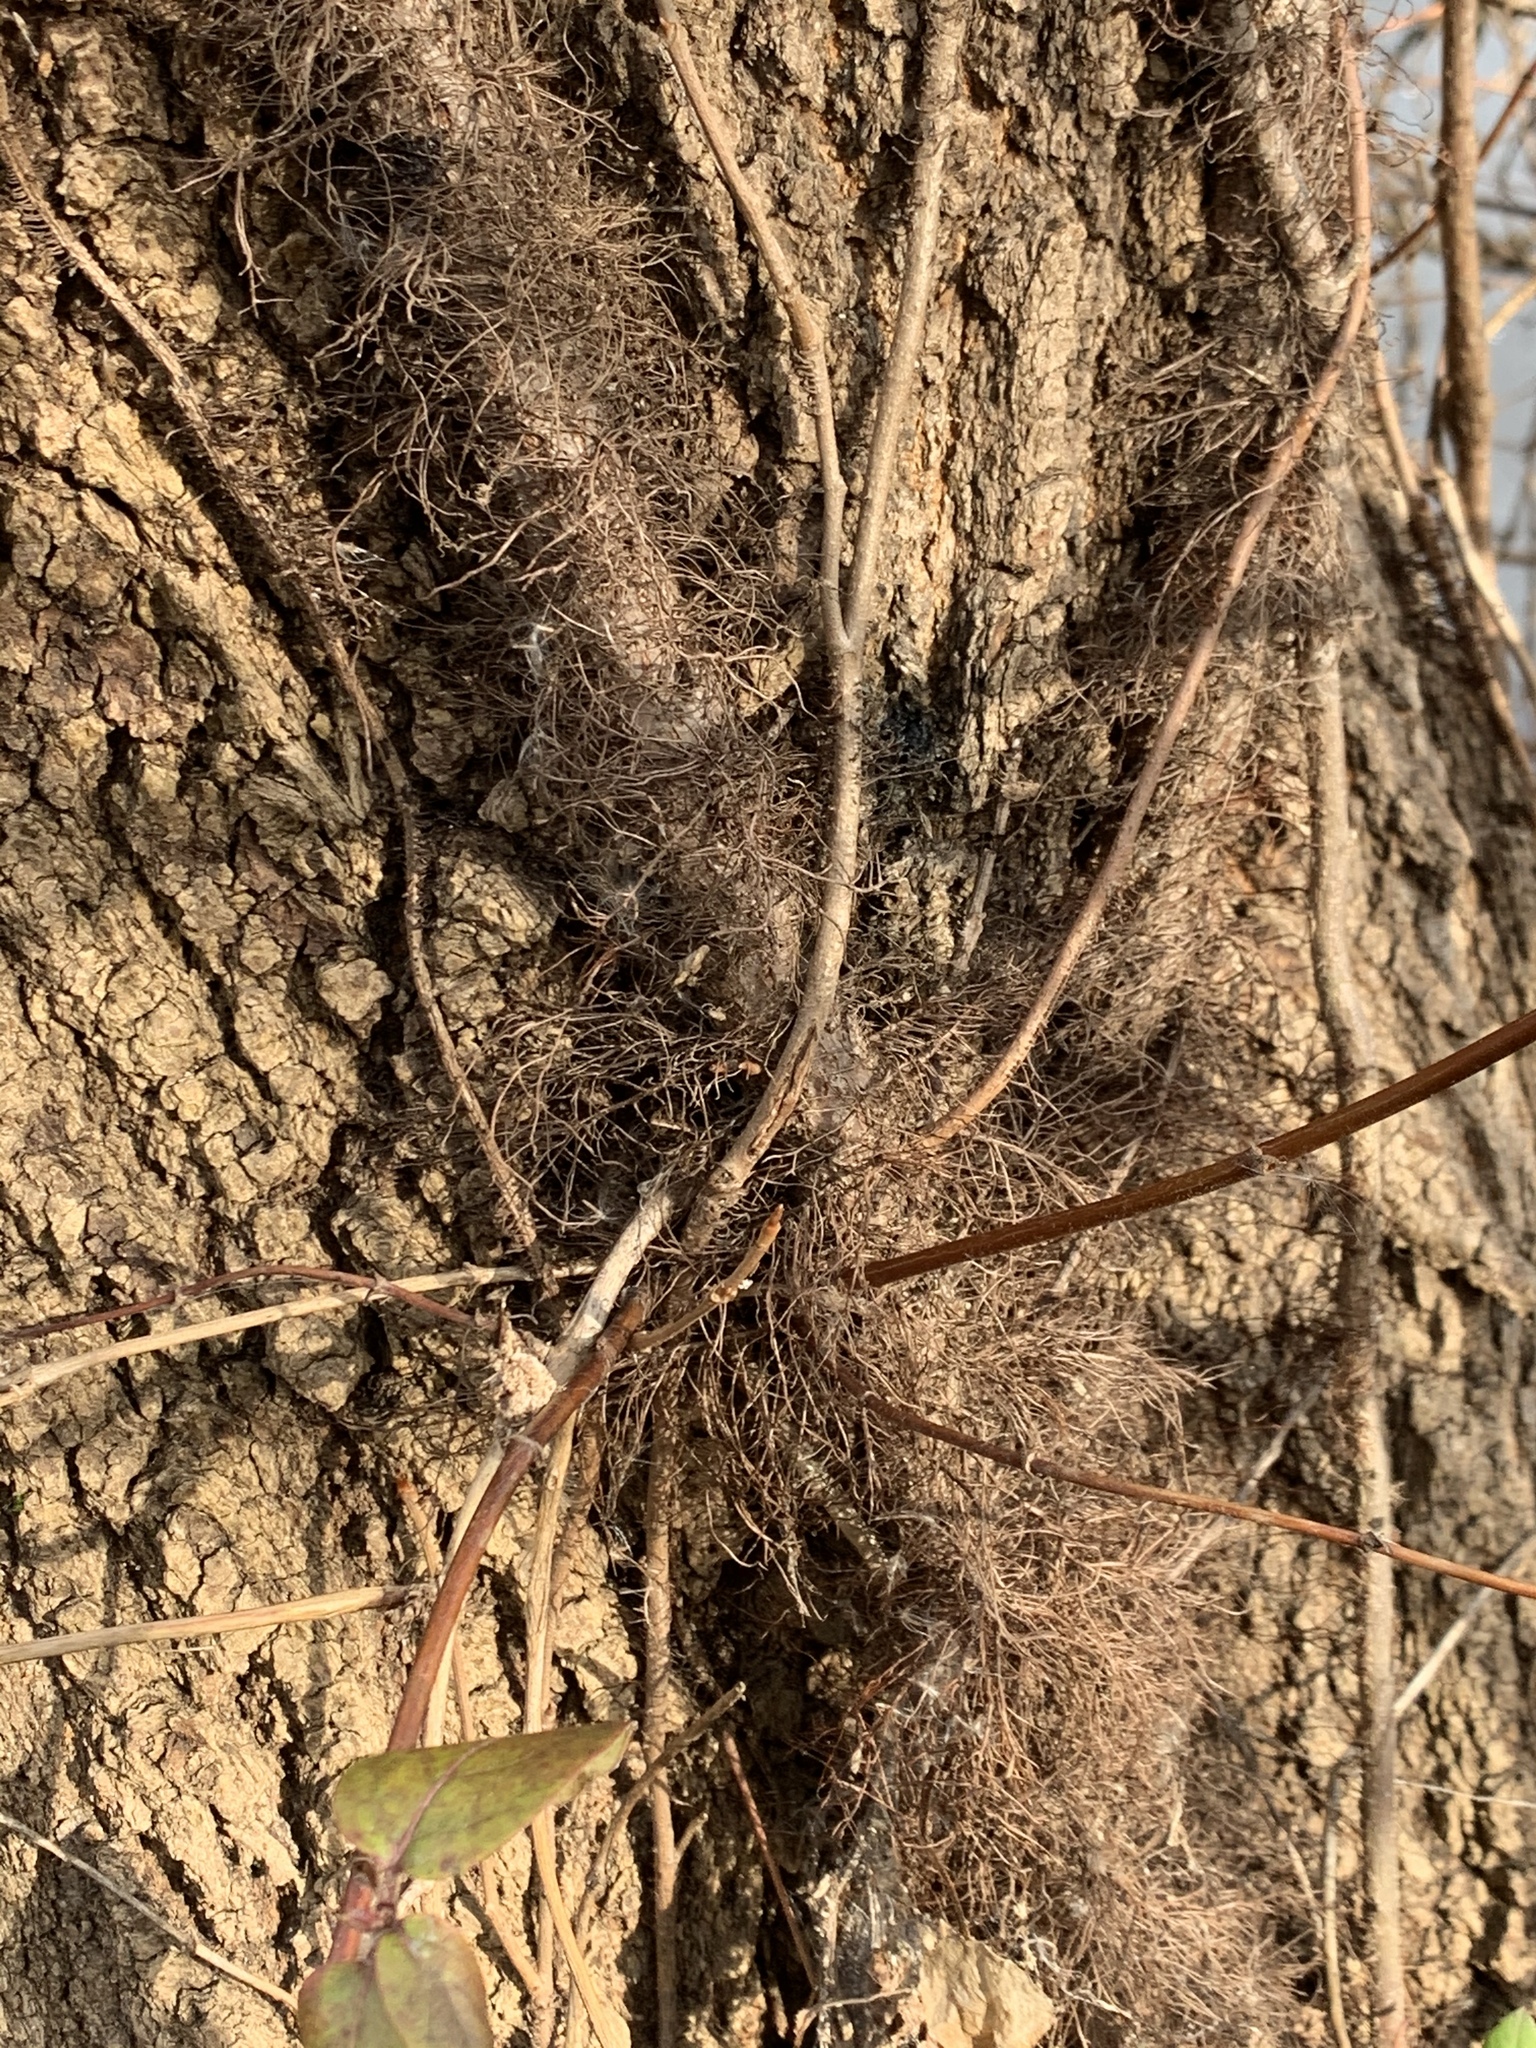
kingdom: Plantae
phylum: Tracheophyta
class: Magnoliopsida
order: Sapindales
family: Anacardiaceae
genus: Toxicodendron
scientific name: Toxicodendron radicans
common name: Poison ivy
